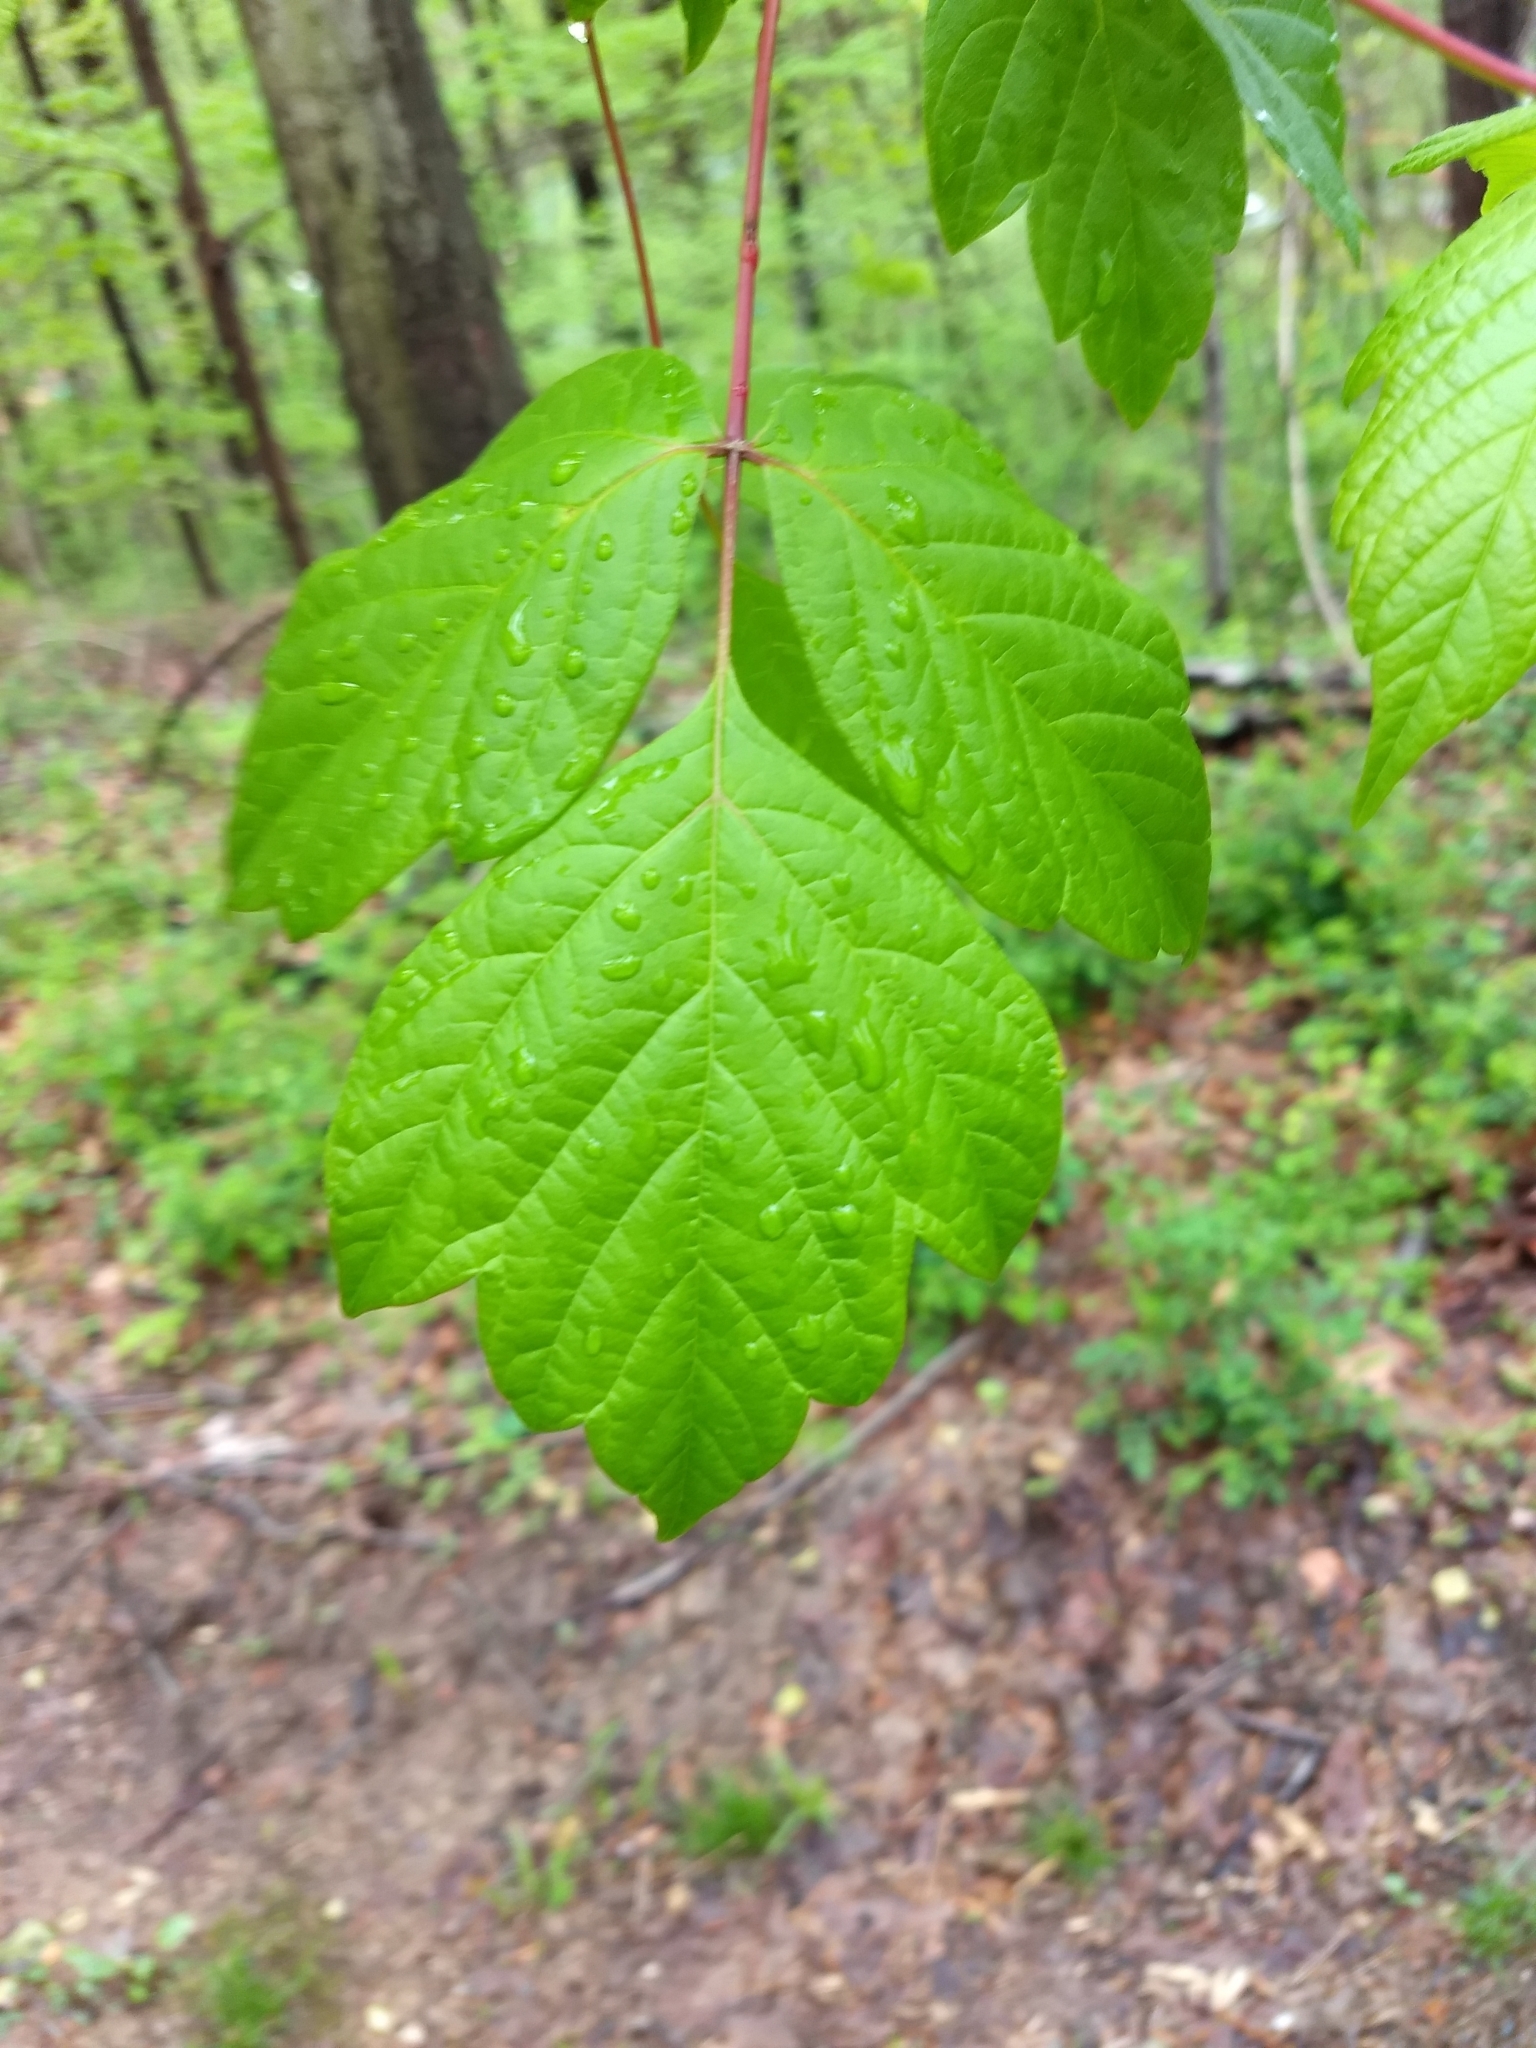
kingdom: Plantae
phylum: Tracheophyta
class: Magnoliopsida
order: Sapindales
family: Sapindaceae
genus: Acer
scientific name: Acer negundo
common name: Ashleaf maple
